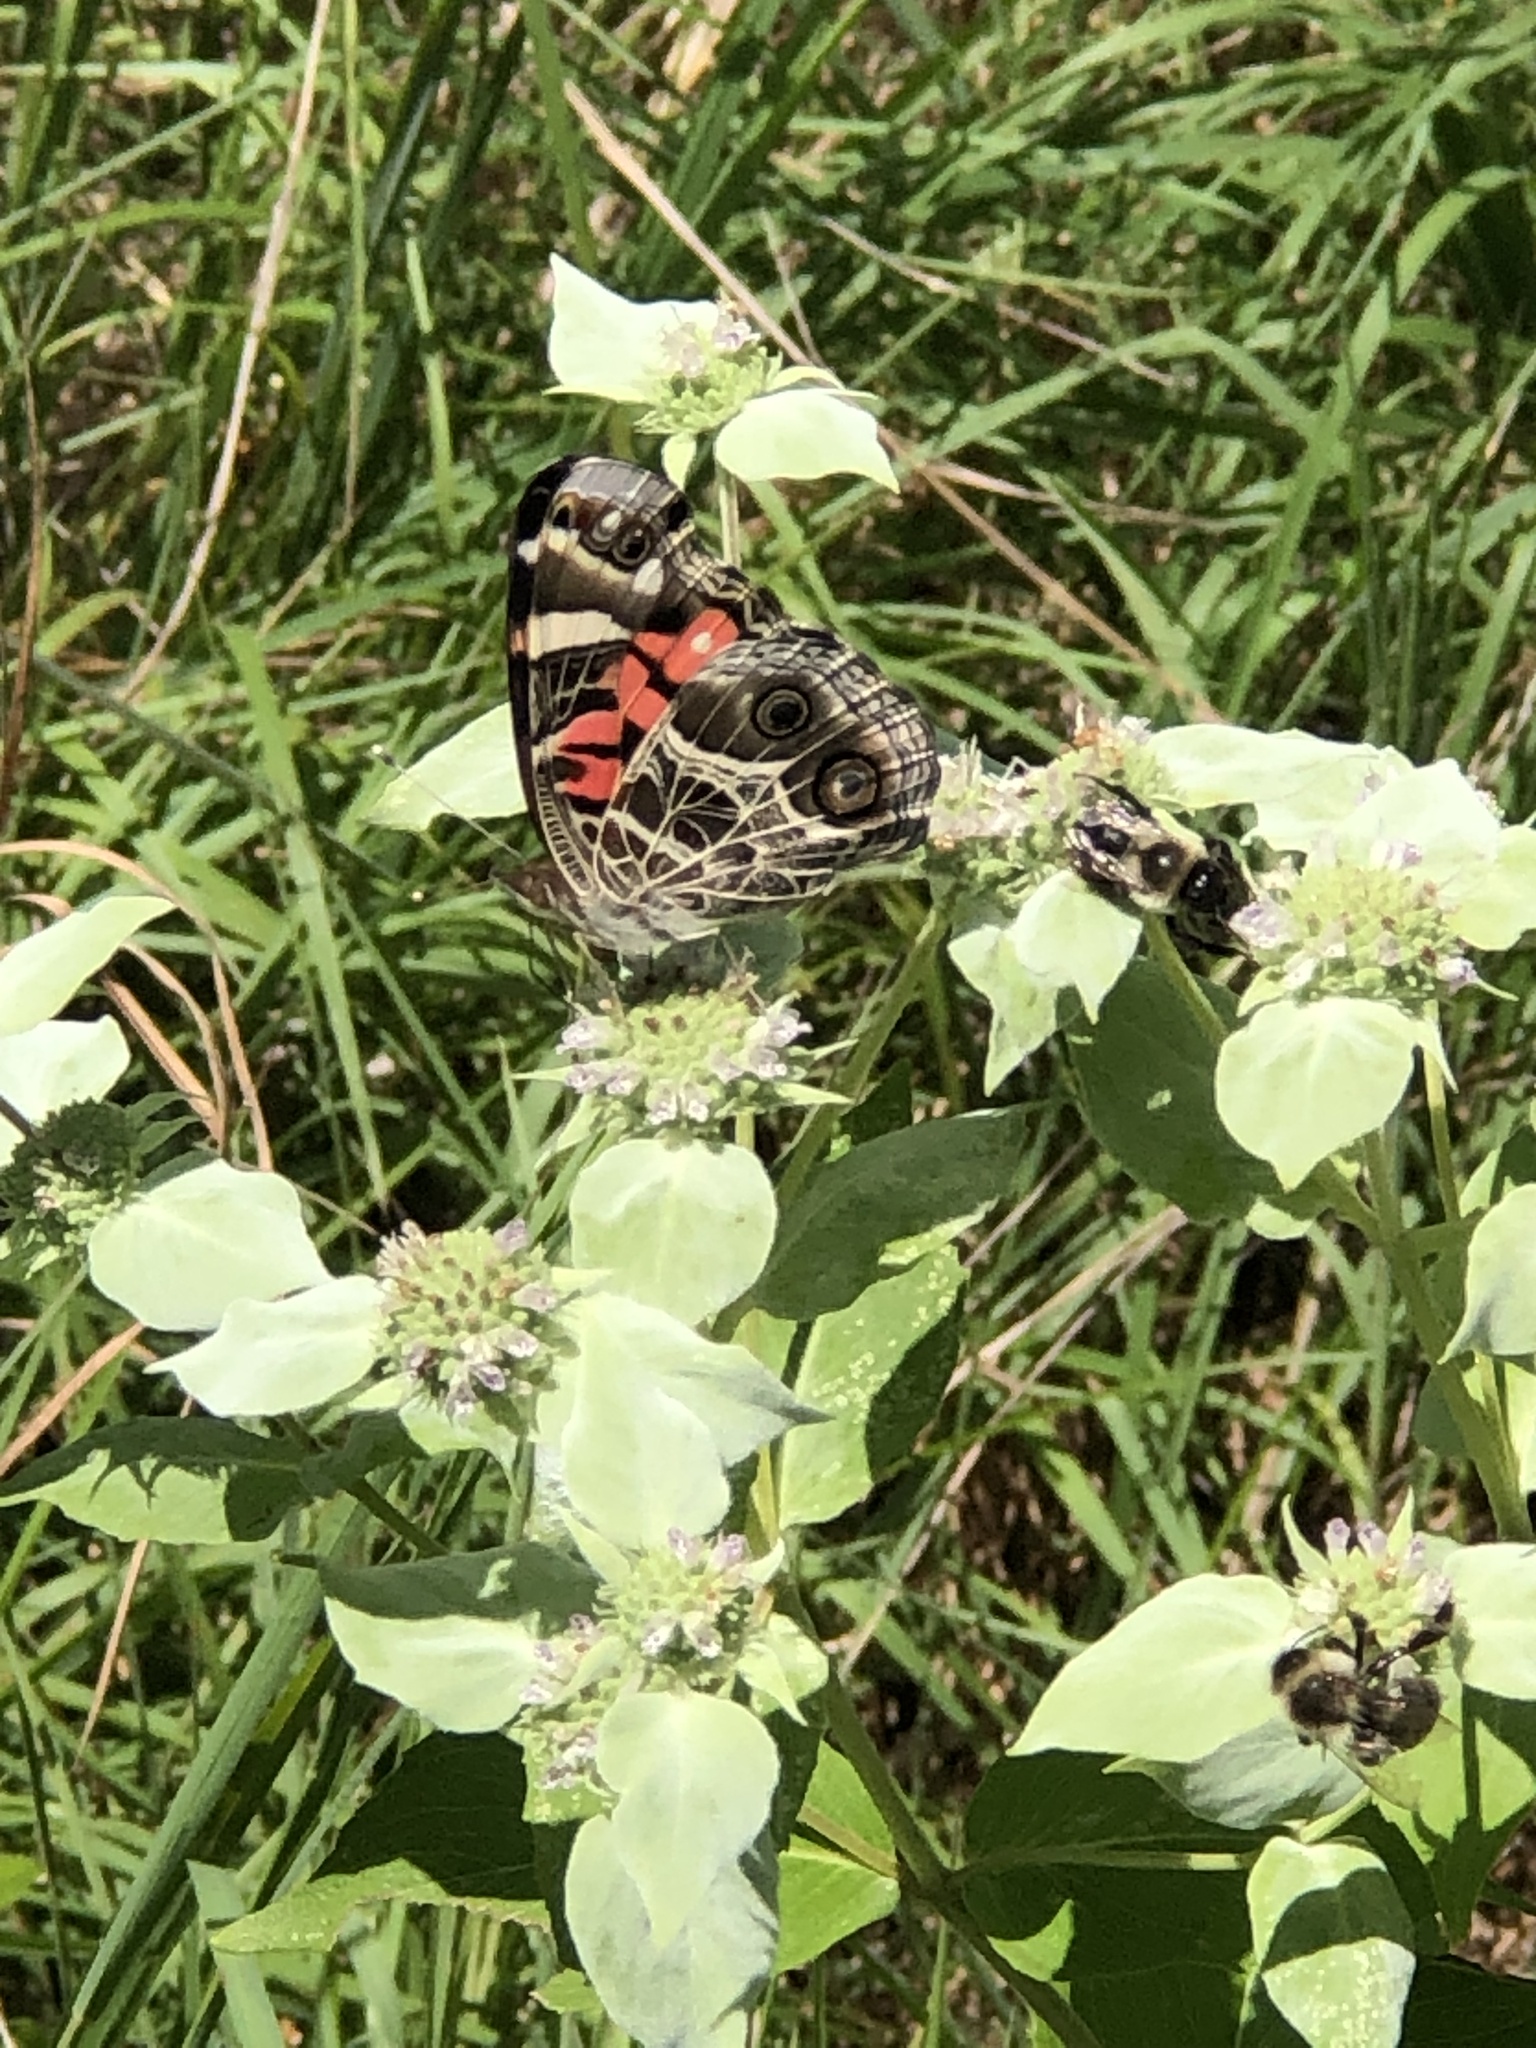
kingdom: Animalia
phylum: Arthropoda
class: Insecta
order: Lepidoptera
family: Nymphalidae
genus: Vanessa
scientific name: Vanessa virginiensis
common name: American lady
